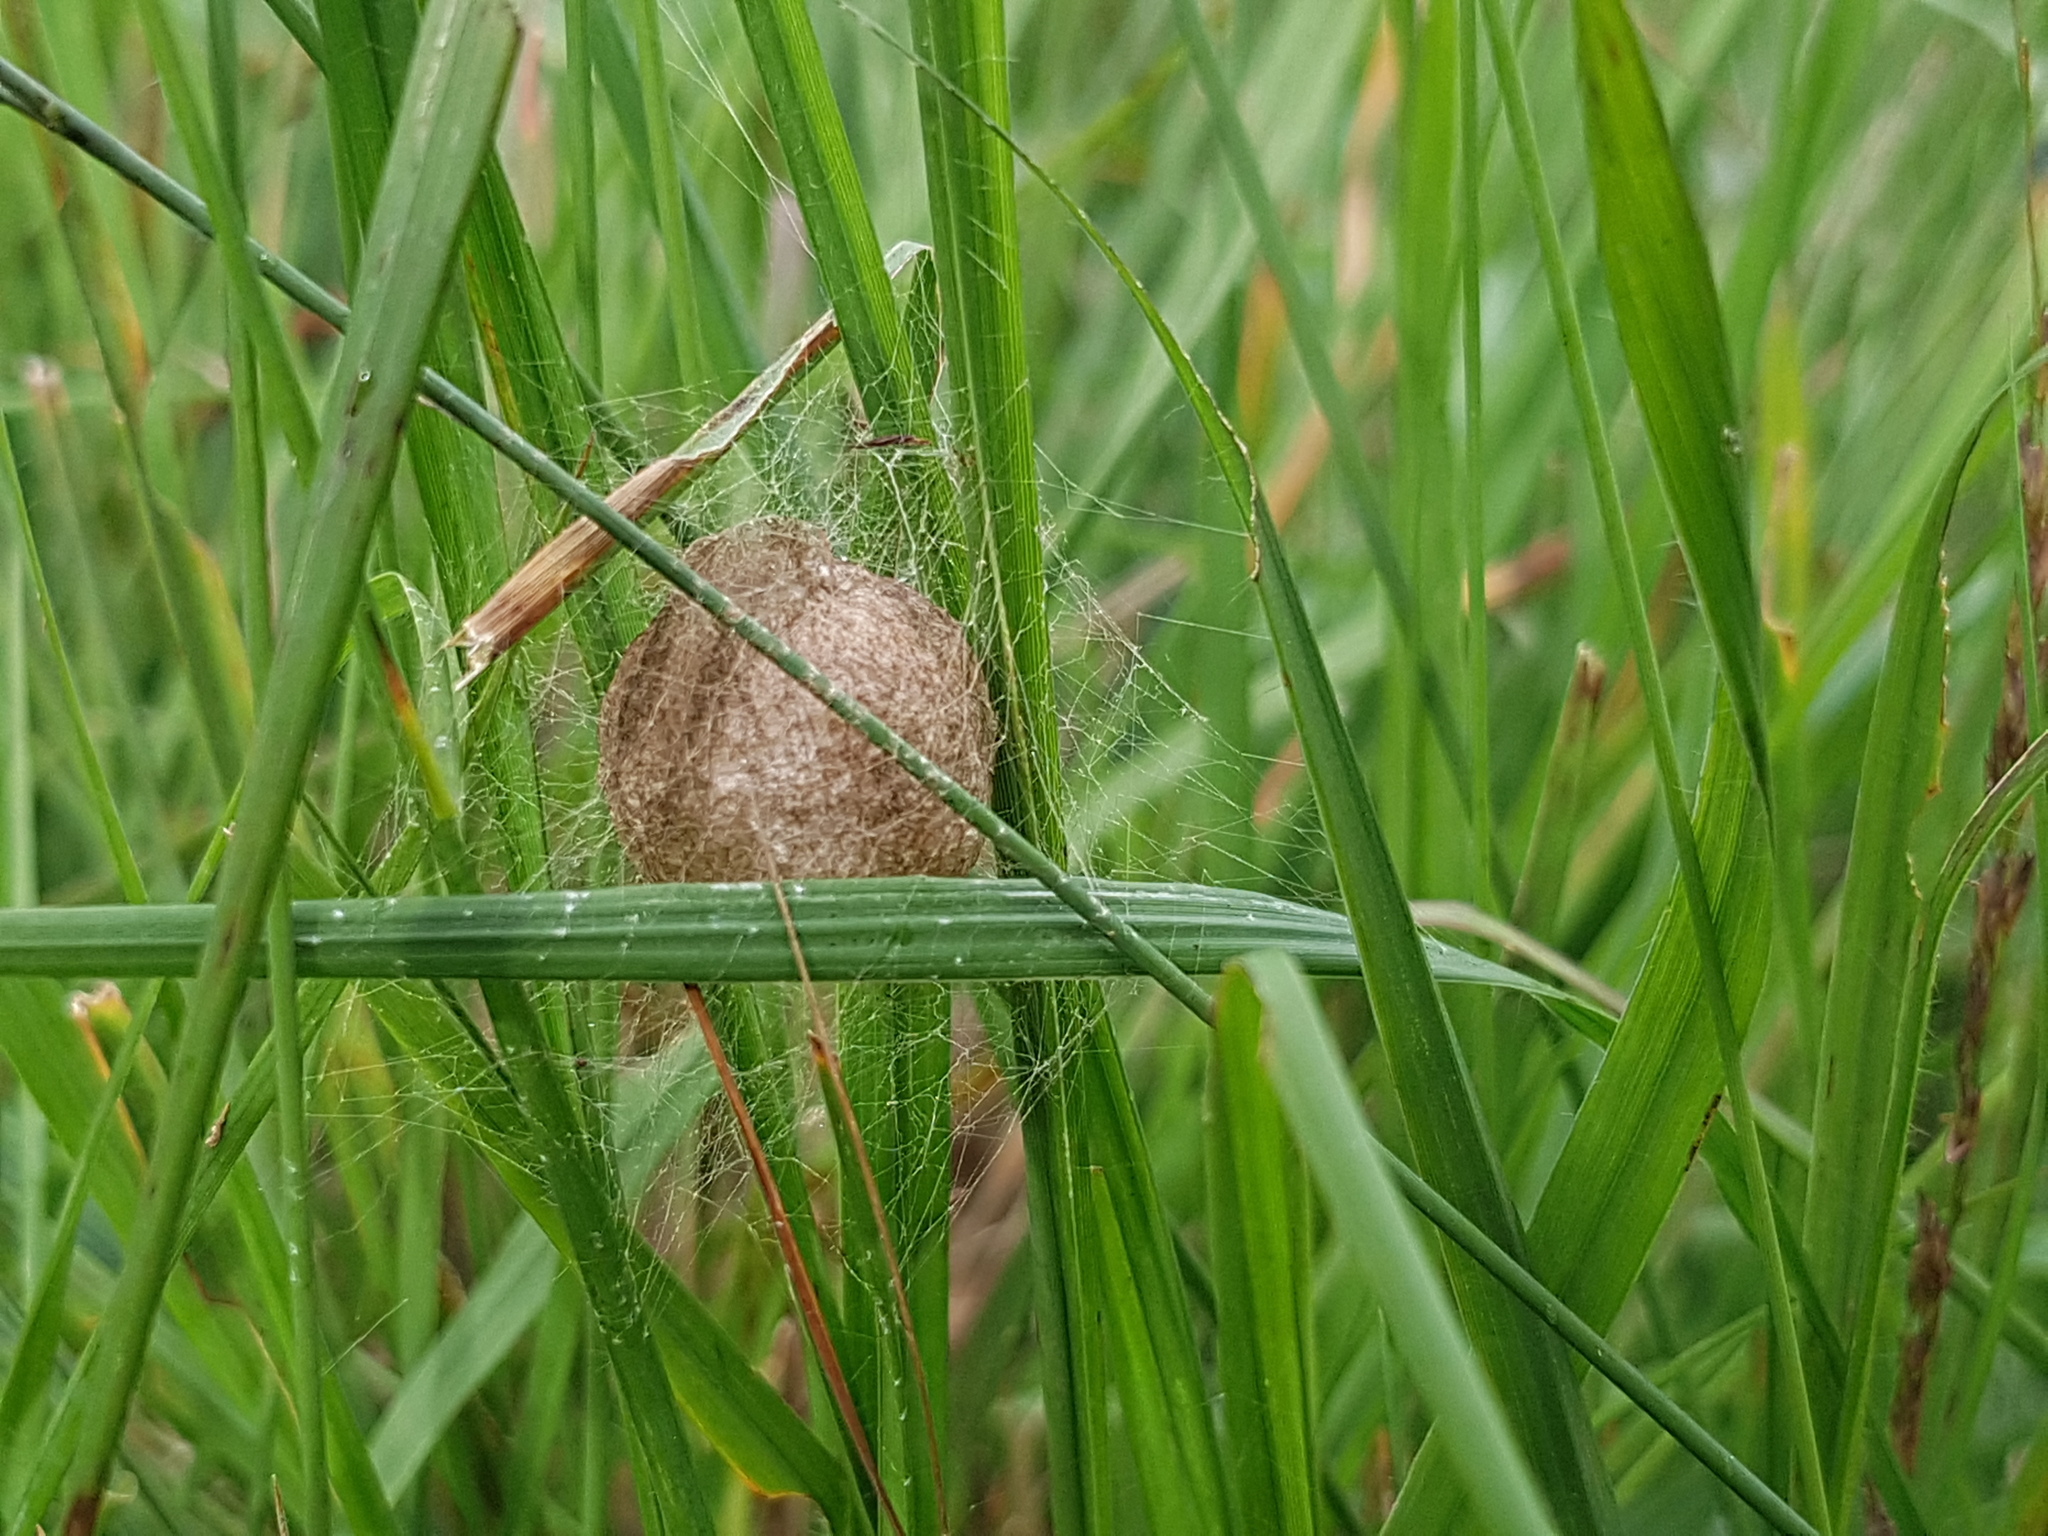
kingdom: Animalia
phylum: Arthropoda
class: Arachnida
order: Araneae
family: Araneidae
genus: Argiope
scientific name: Argiope bruennichi
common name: Wasp spider
